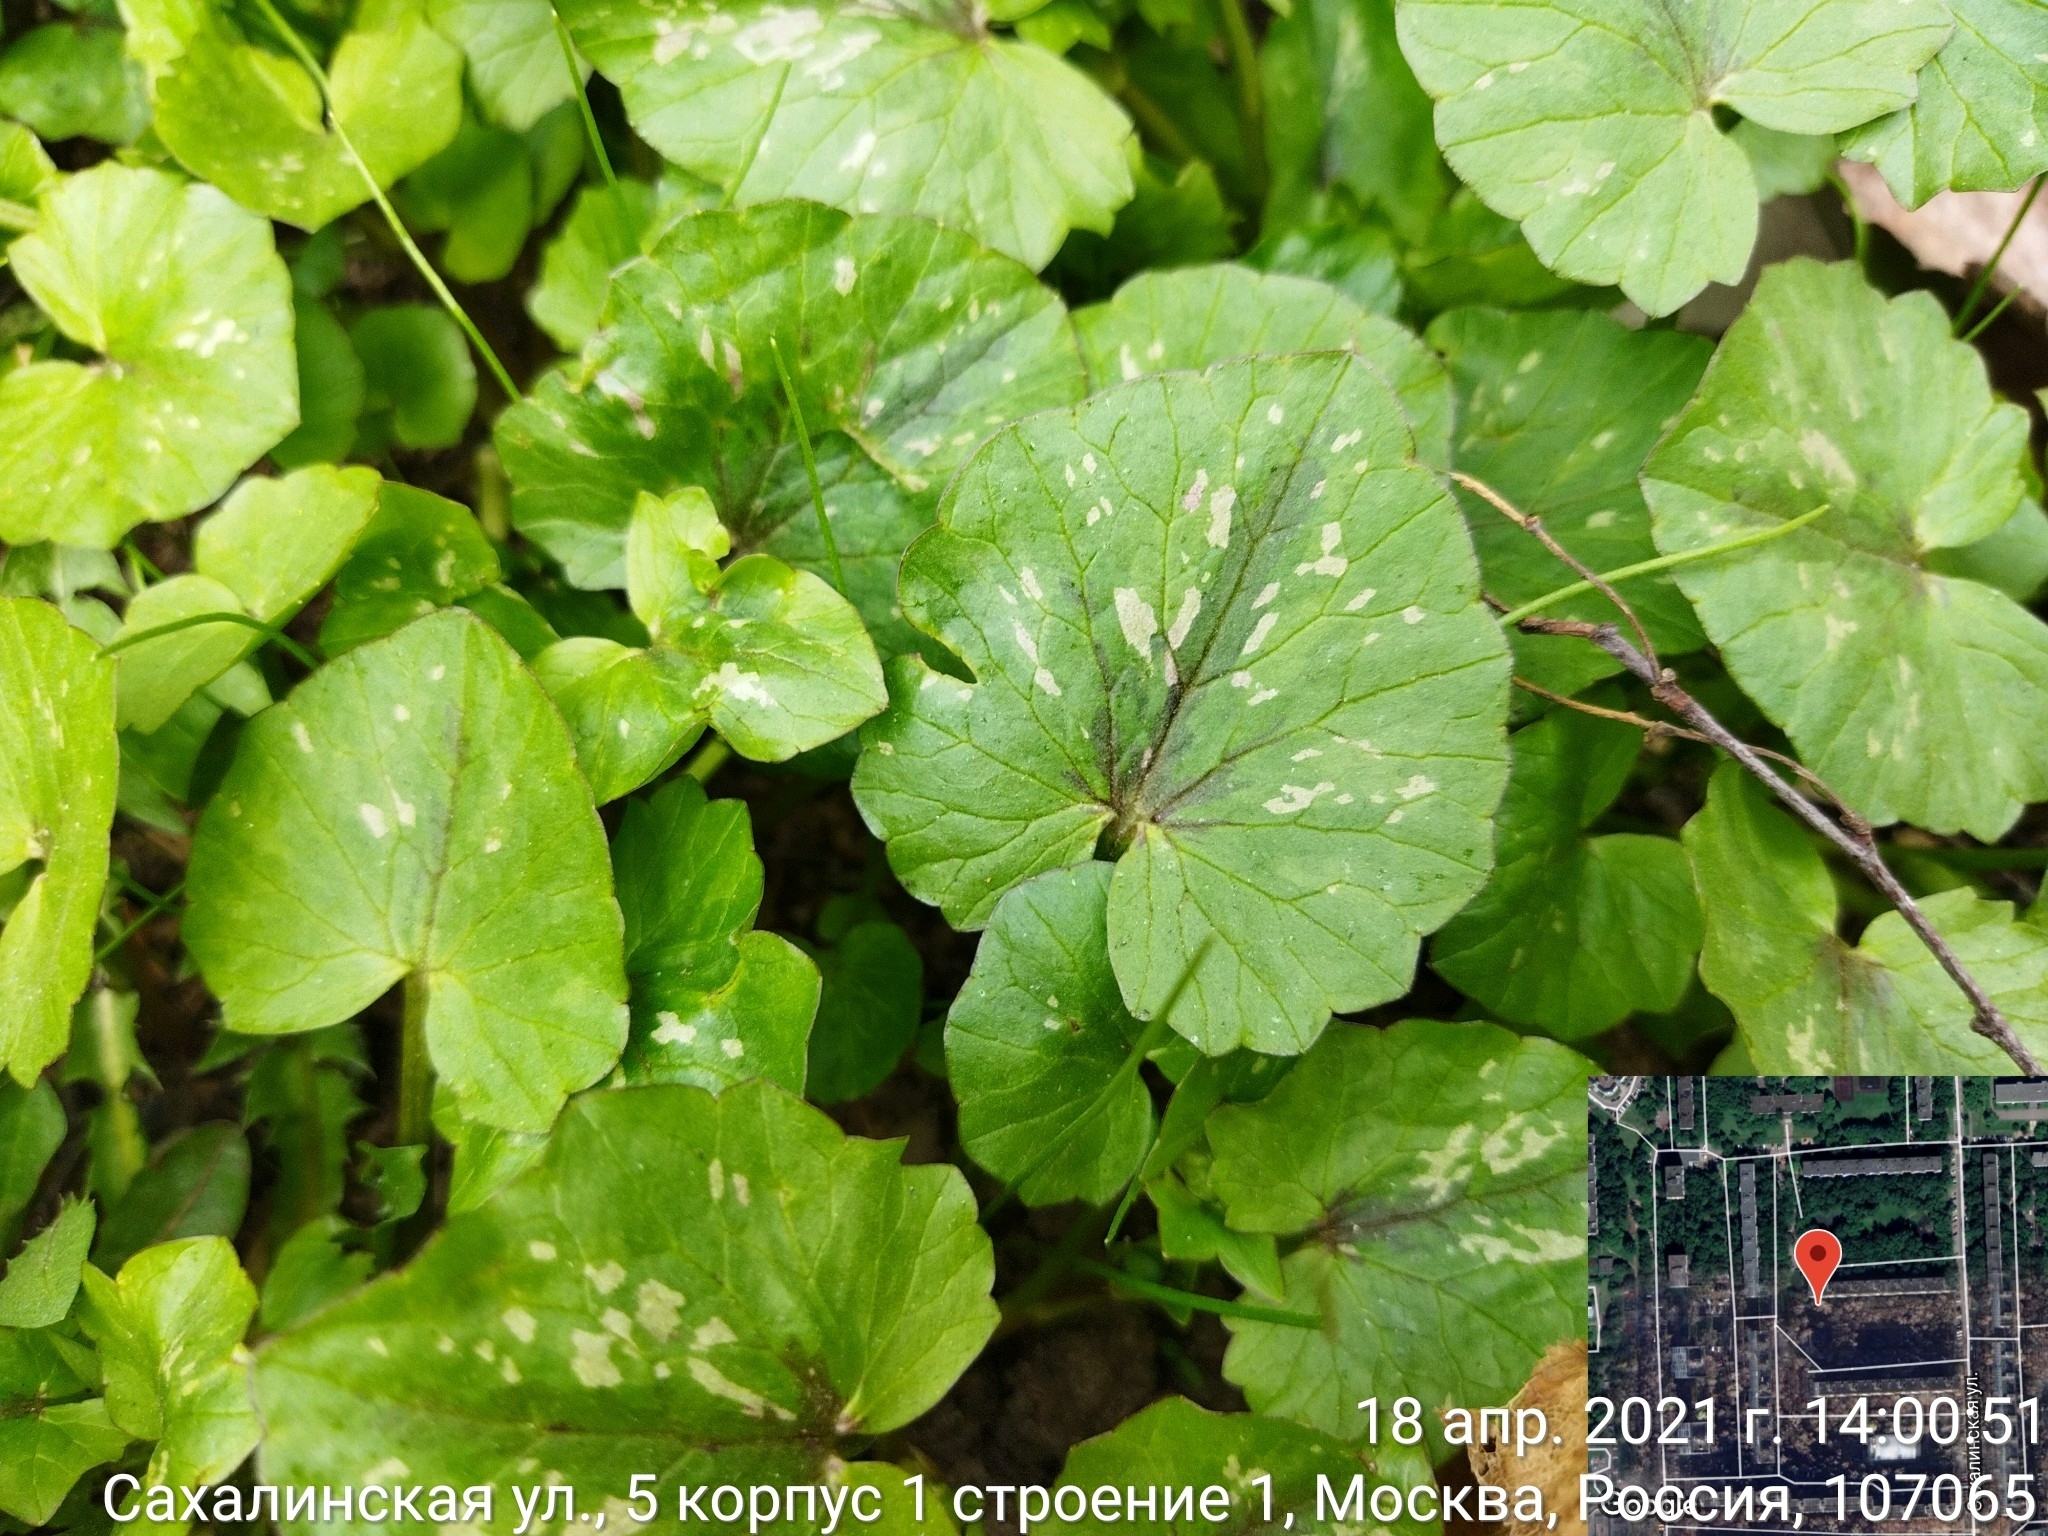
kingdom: Plantae
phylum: Tracheophyta
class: Magnoliopsida
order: Ranunculales
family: Ranunculaceae
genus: Ficaria
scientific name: Ficaria verna
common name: Lesser celandine
